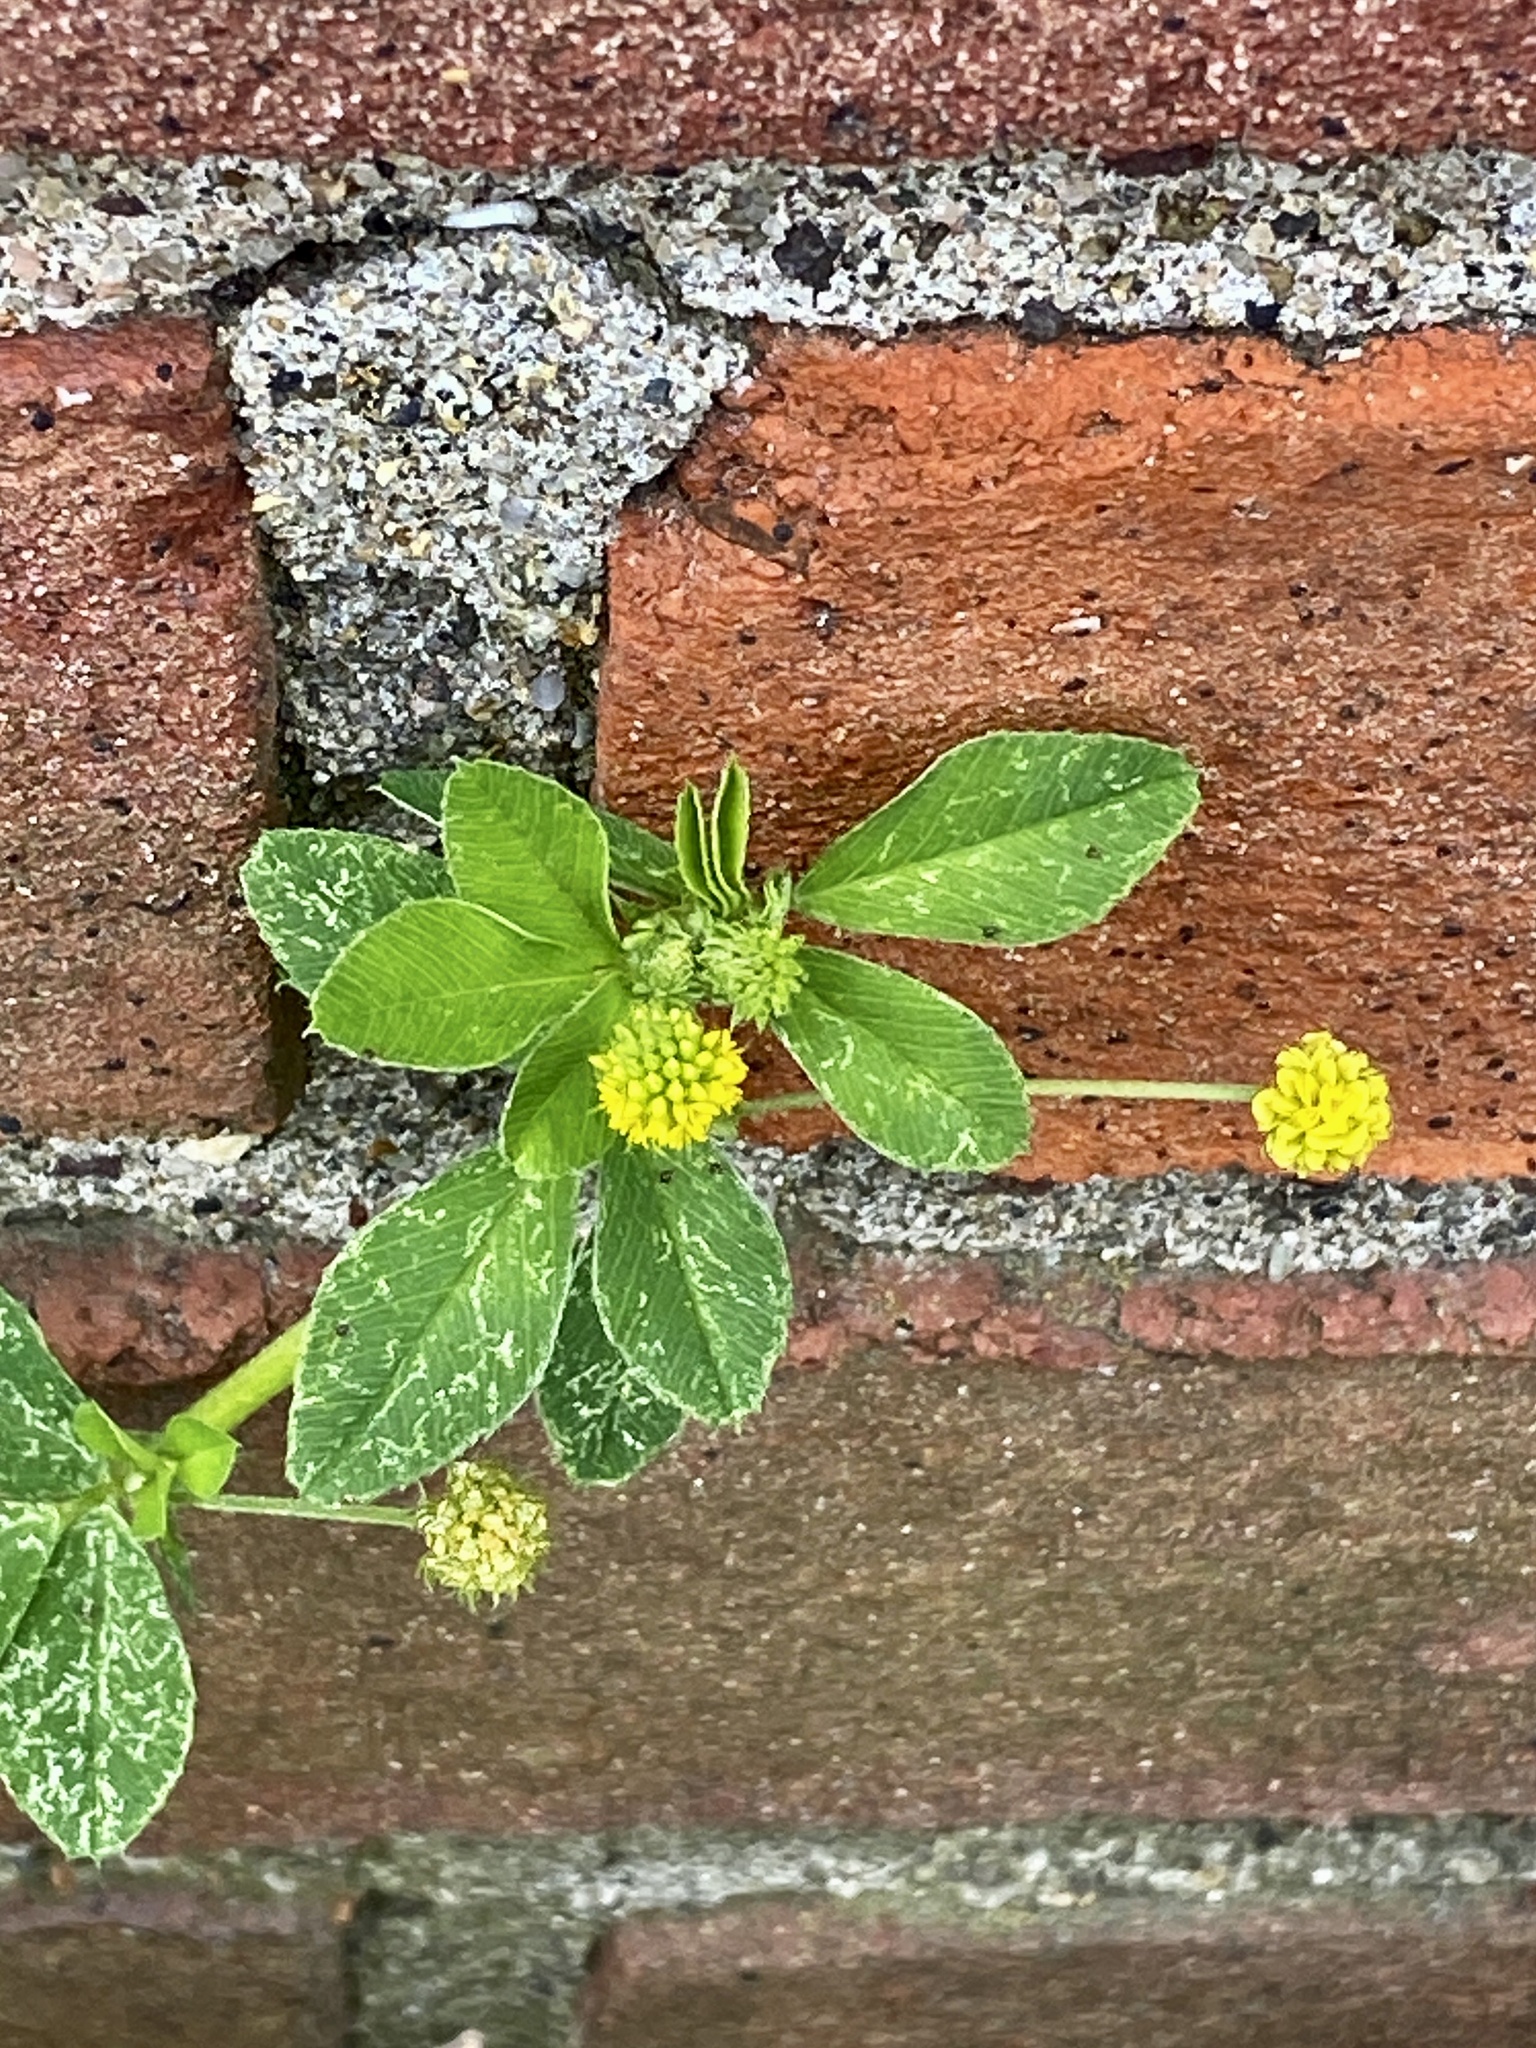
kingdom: Plantae
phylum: Tracheophyta
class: Magnoliopsida
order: Fabales
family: Fabaceae
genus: Medicago
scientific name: Medicago lupulina
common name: Black medick
